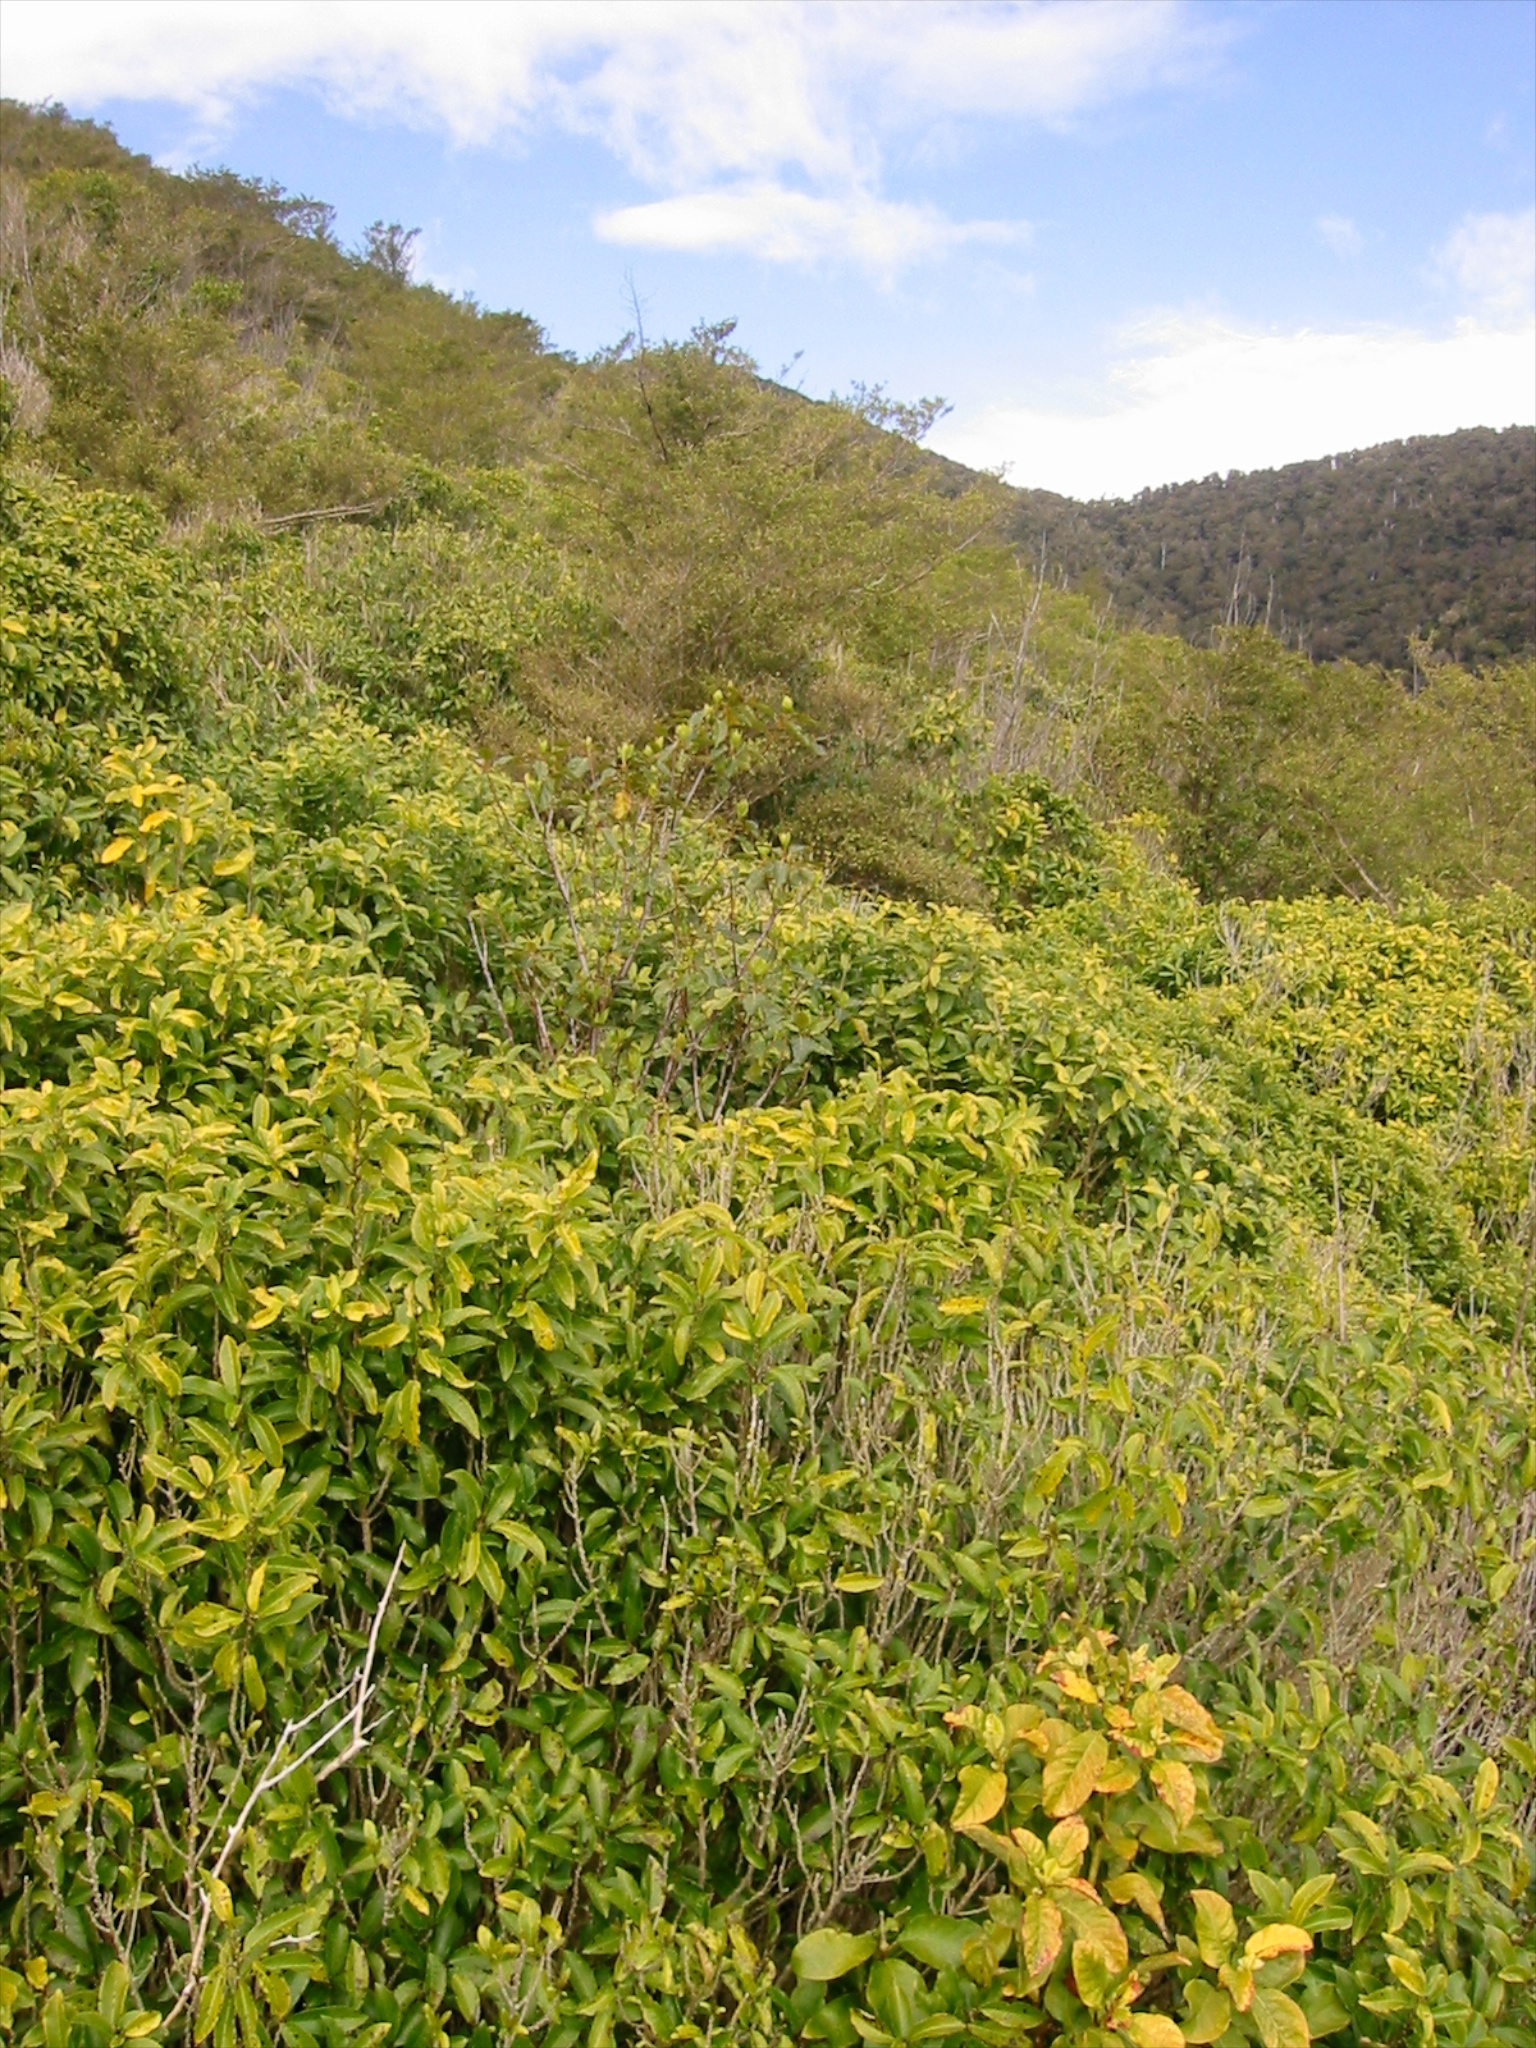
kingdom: Plantae
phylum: Tracheophyta
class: Magnoliopsida
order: Malpighiales
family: Violaceae
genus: Melicytus
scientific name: Melicytus ramiflorus
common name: Mahoe
